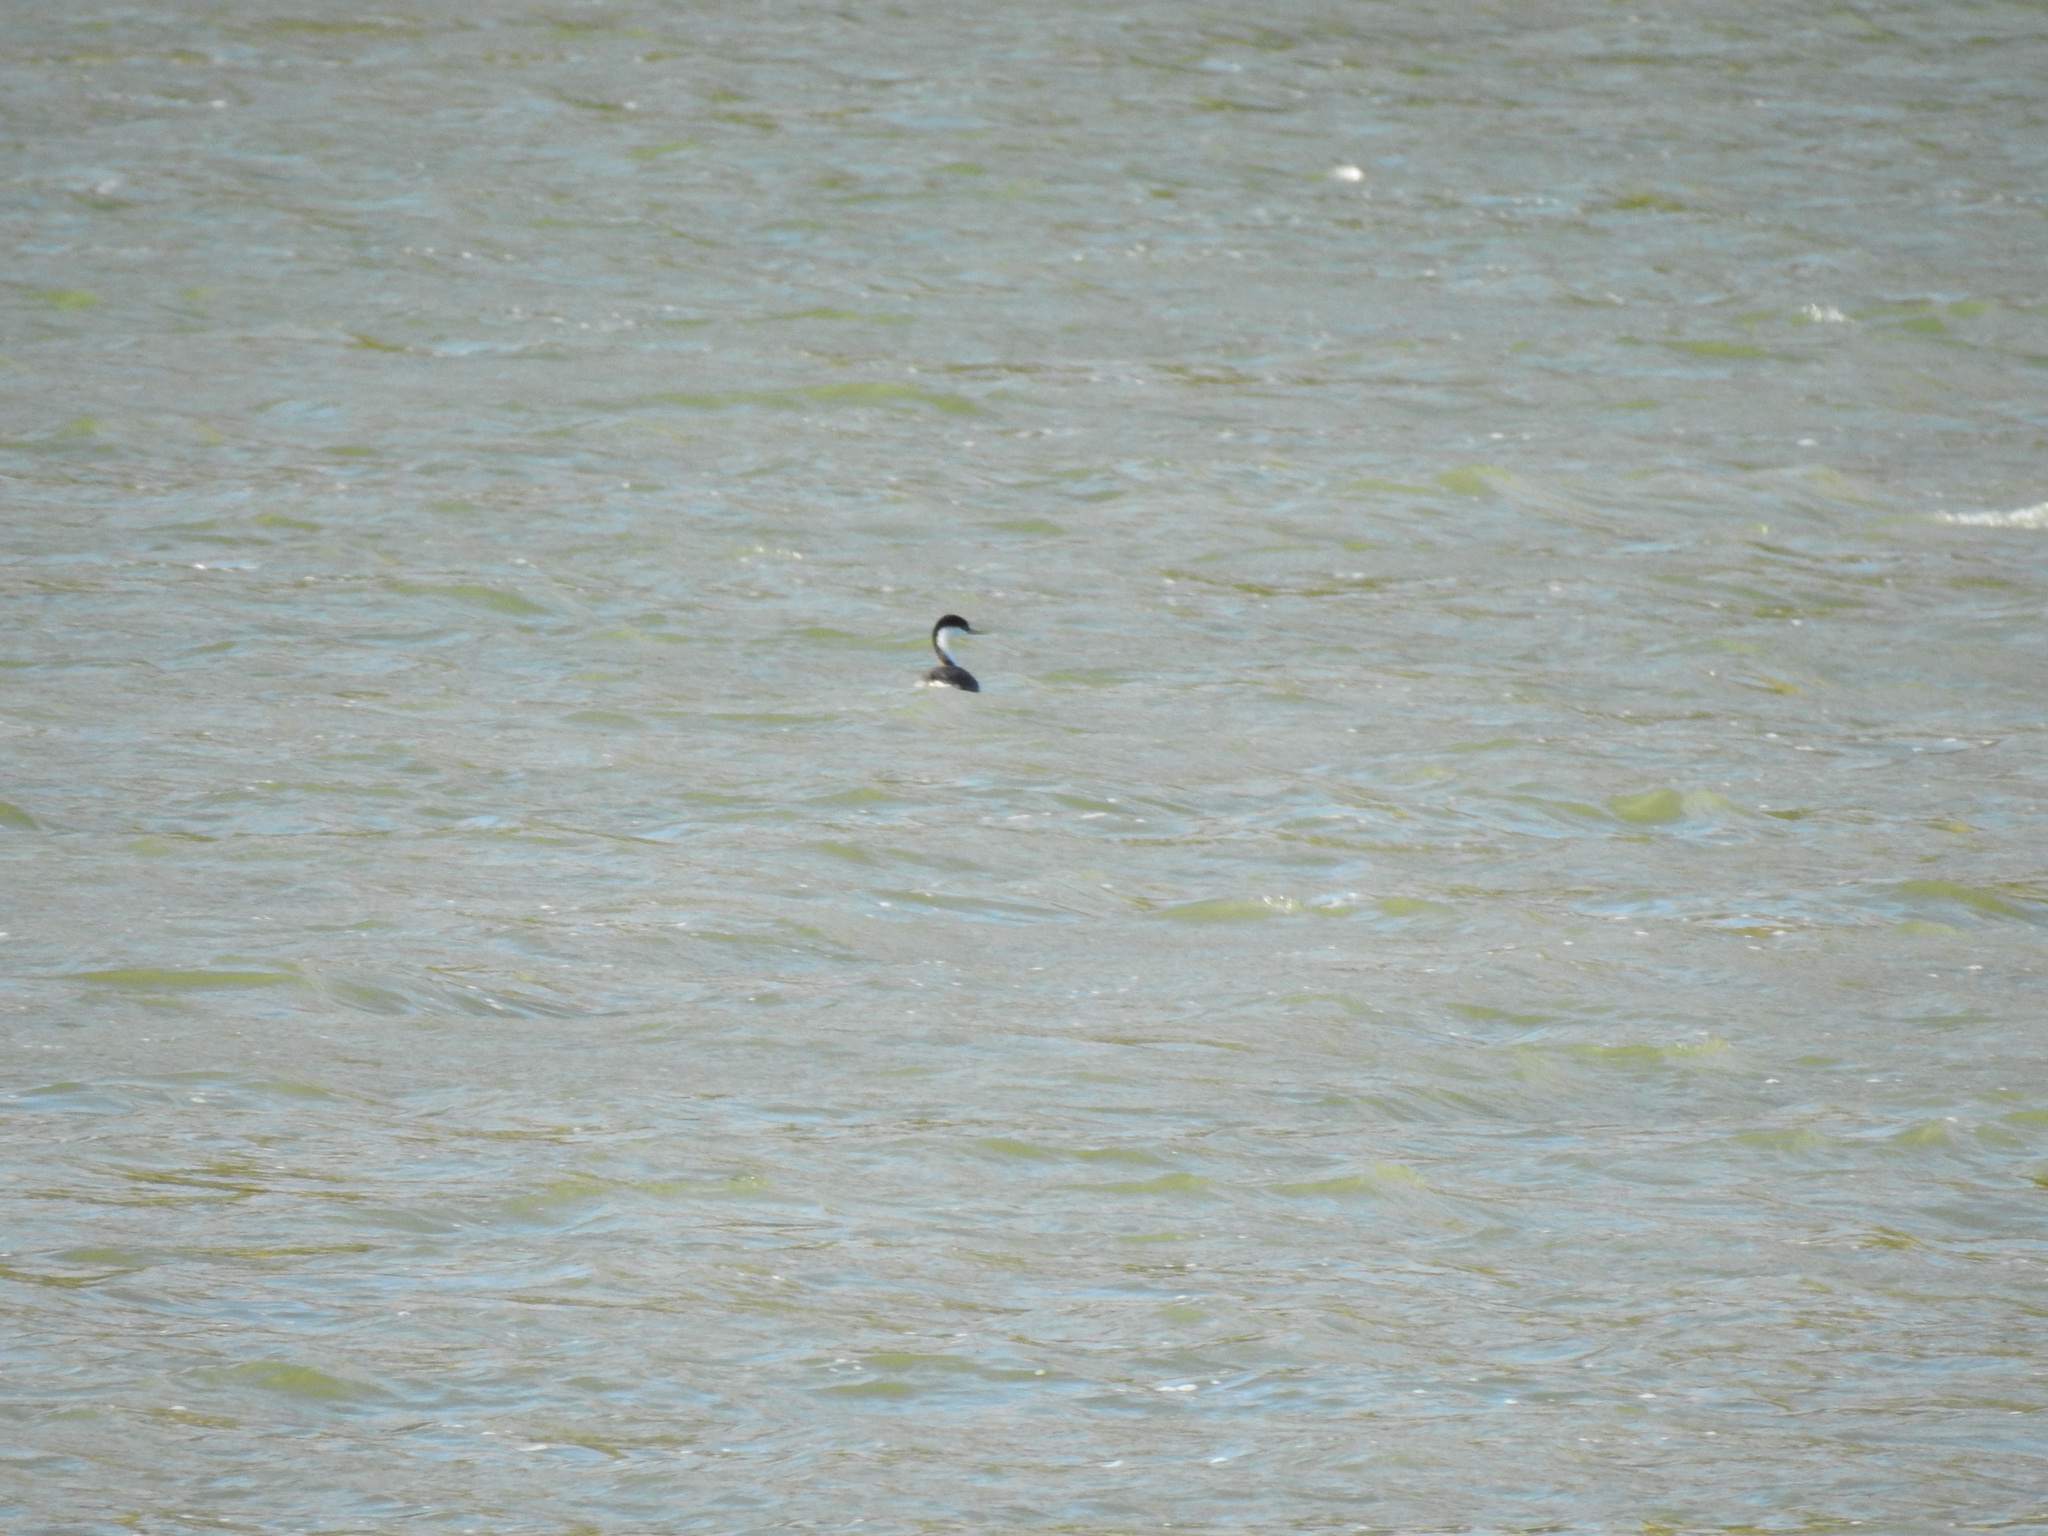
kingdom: Animalia
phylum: Chordata
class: Aves
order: Podicipediformes
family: Podicipedidae
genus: Aechmophorus
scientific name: Aechmophorus occidentalis
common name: Western grebe
